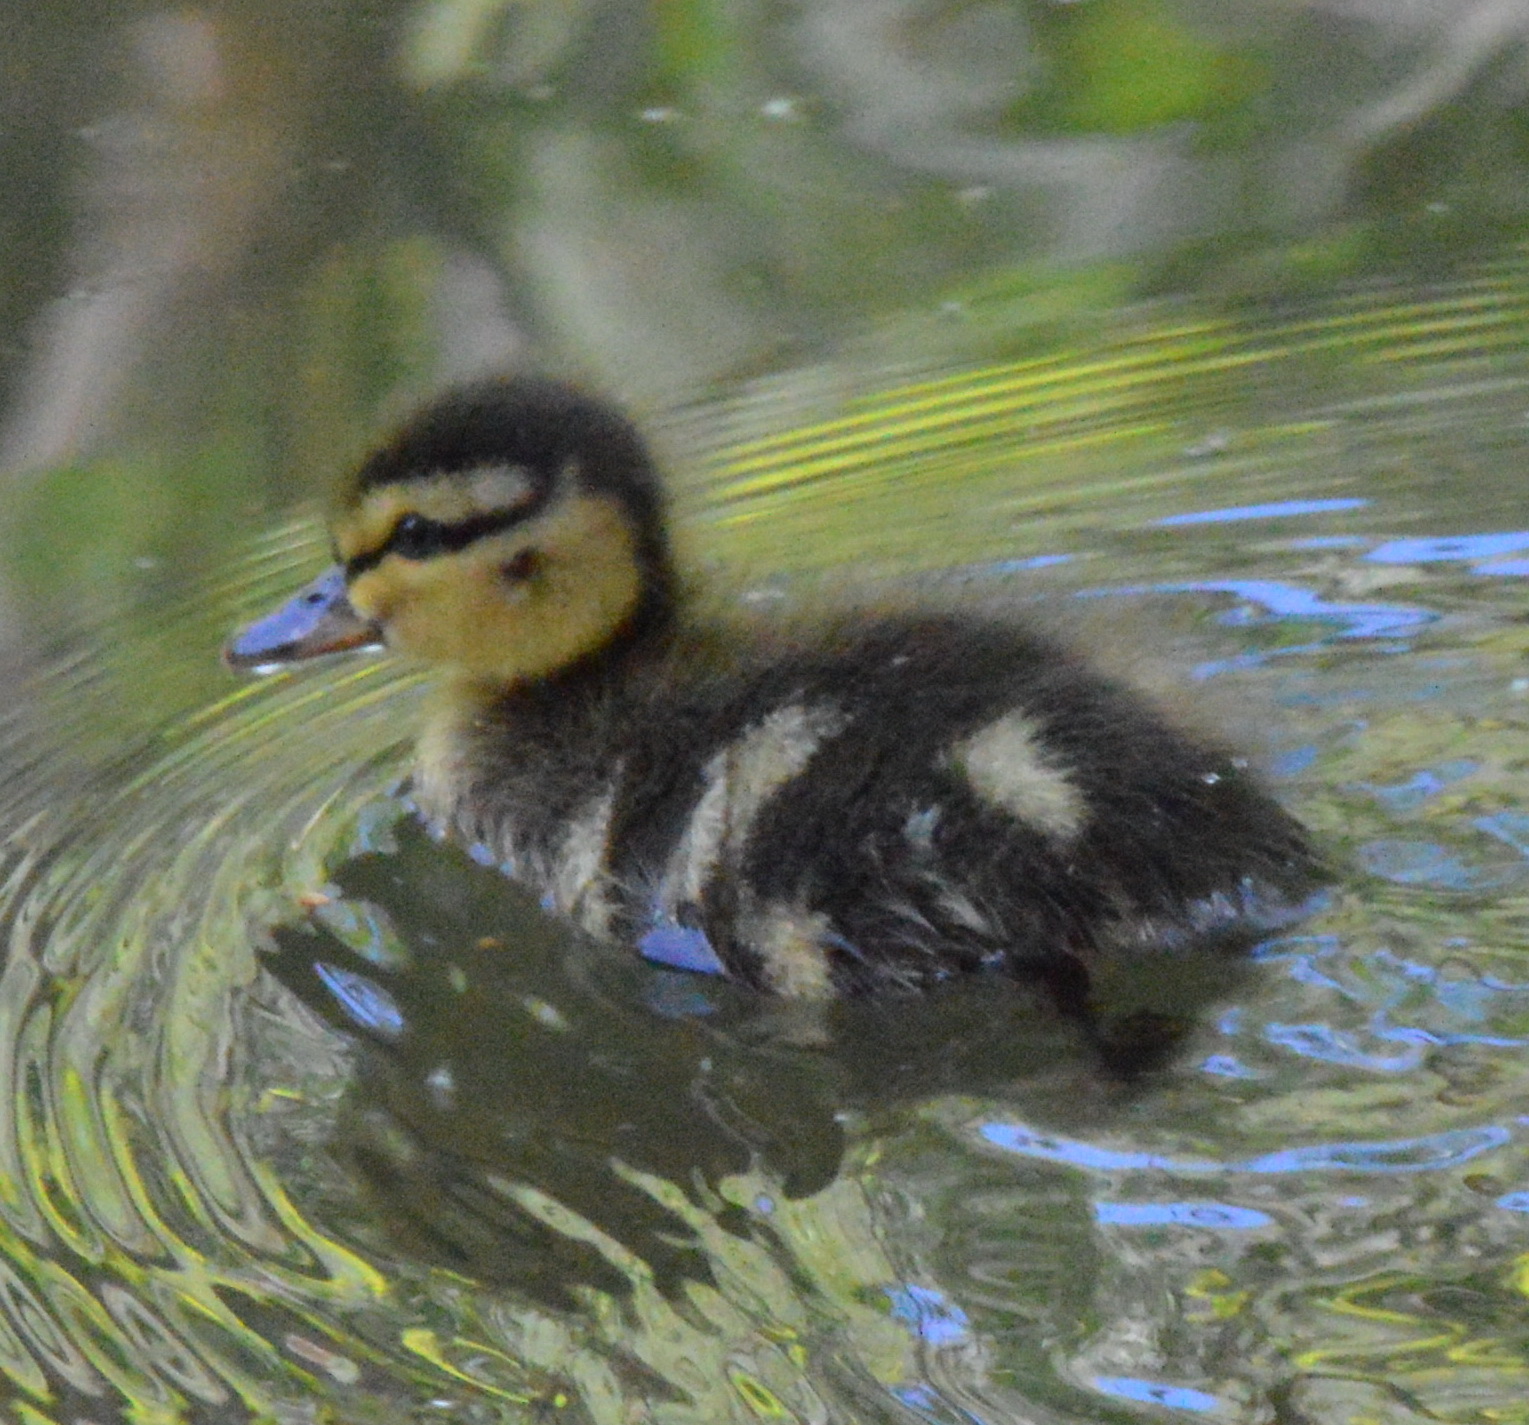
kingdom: Animalia
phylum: Chordata
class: Aves
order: Anseriformes
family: Anatidae
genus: Anas
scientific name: Anas platyrhynchos
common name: Mallard
